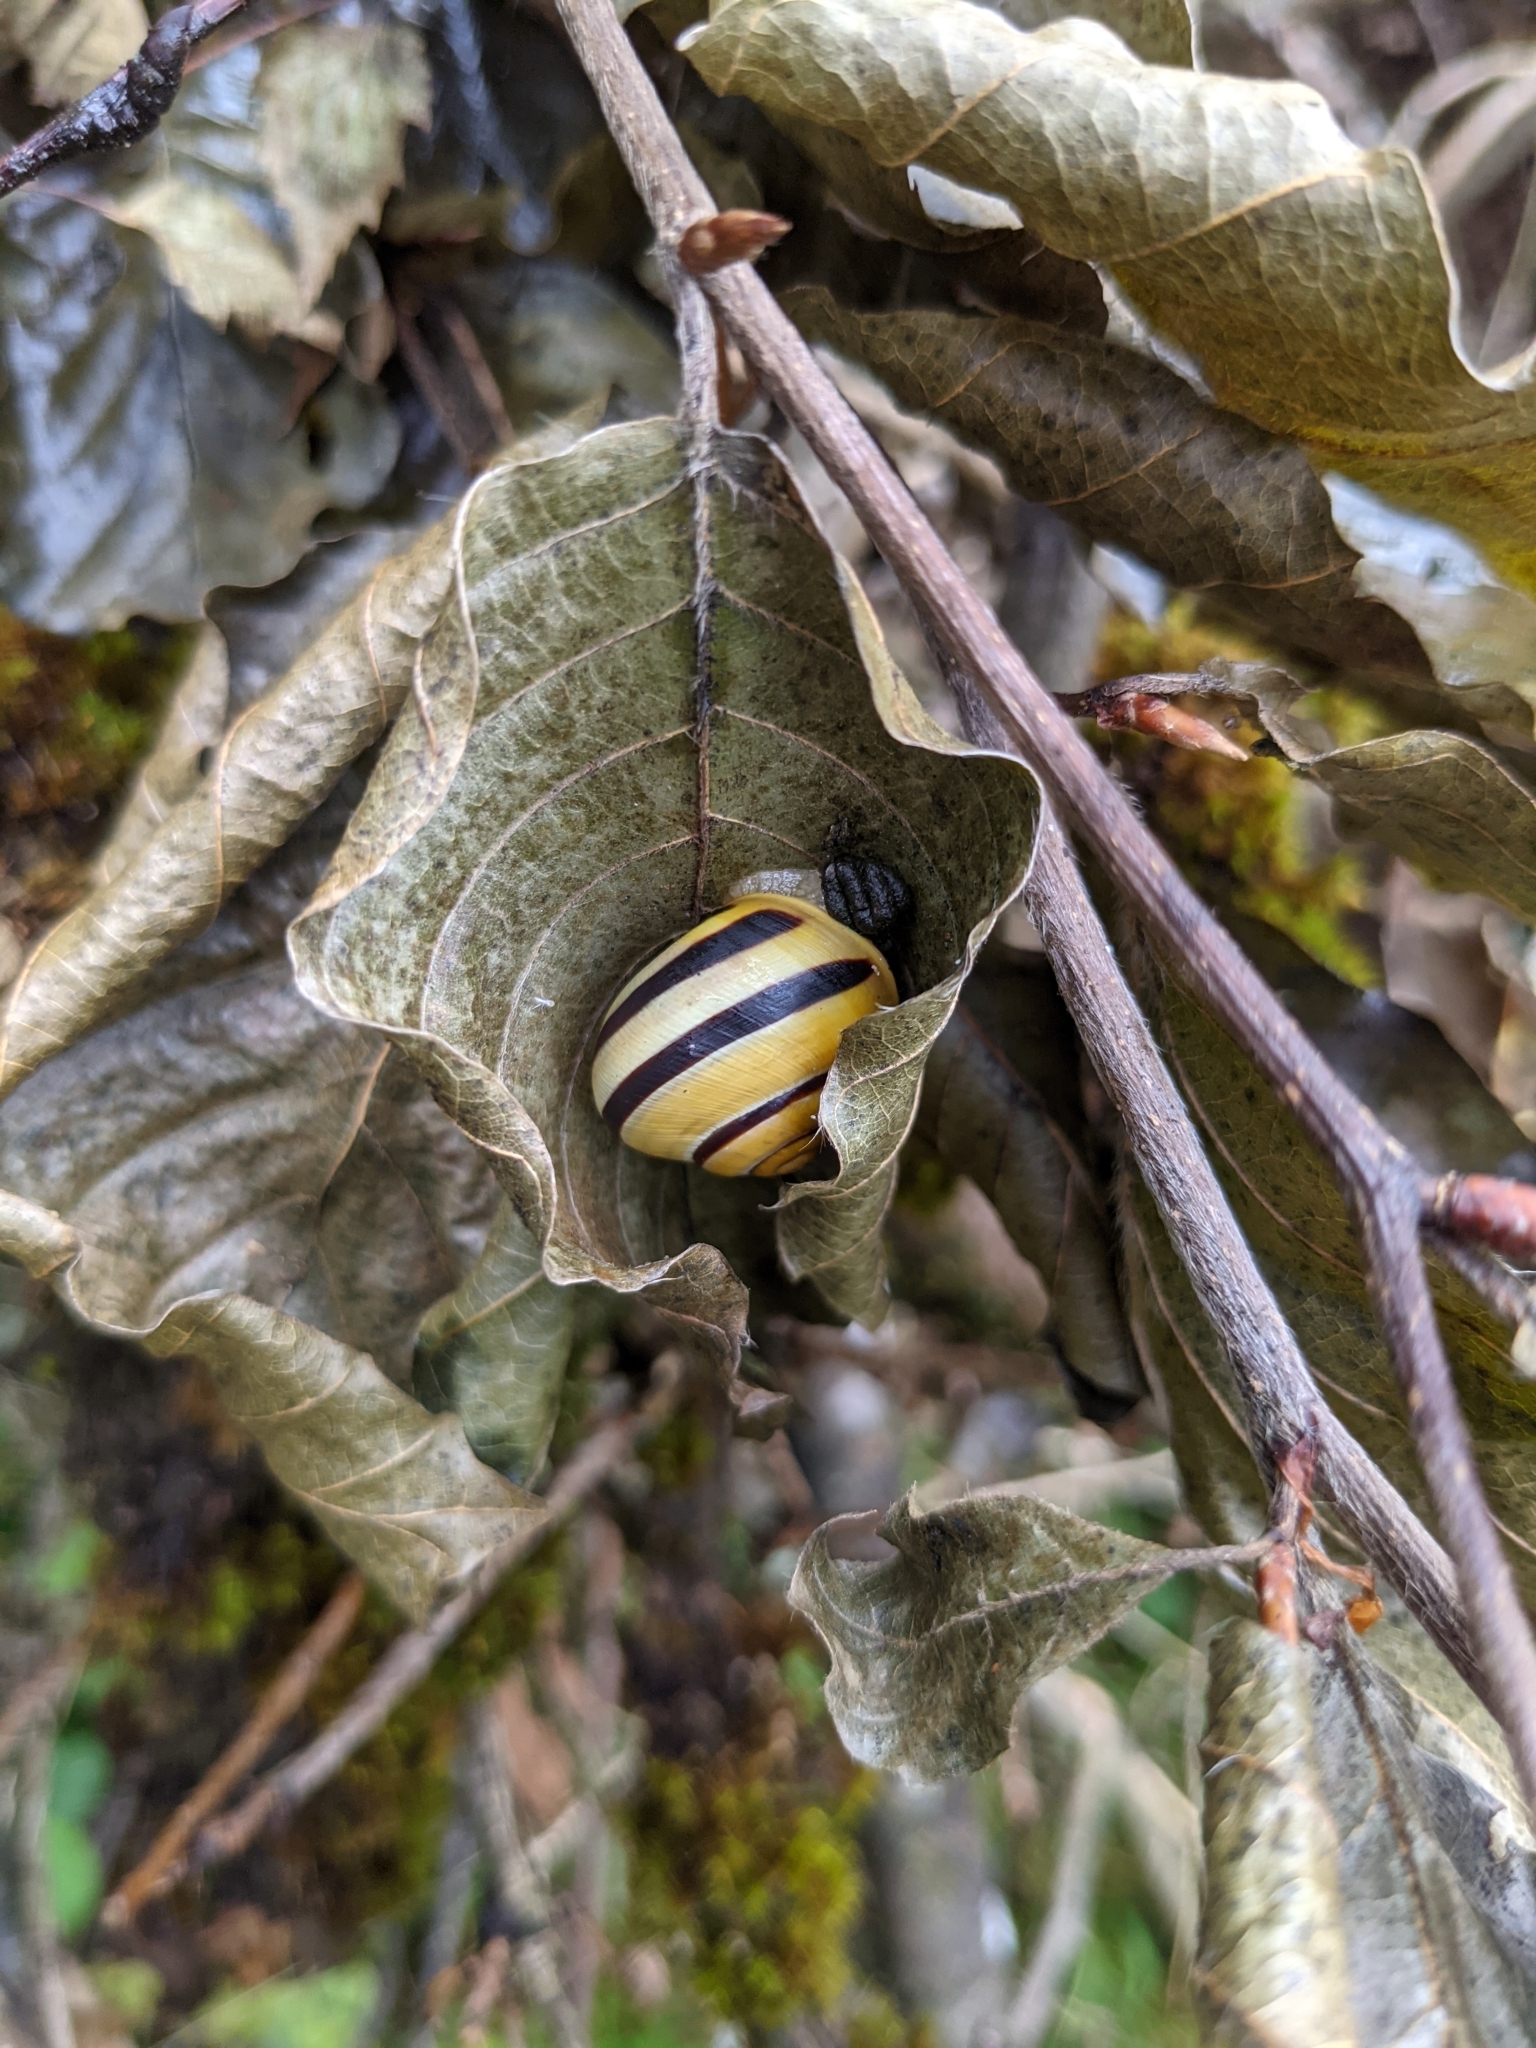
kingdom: Animalia
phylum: Mollusca
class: Gastropoda
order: Stylommatophora
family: Helicidae
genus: Cepaea
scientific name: Cepaea
